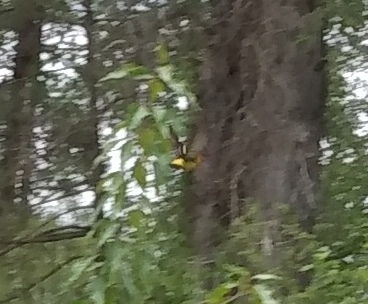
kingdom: Animalia
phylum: Chordata
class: Aves
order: Passeriformes
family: Cardinalidae
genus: Piranga
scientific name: Piranga ludoviciana
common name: Western tanager
